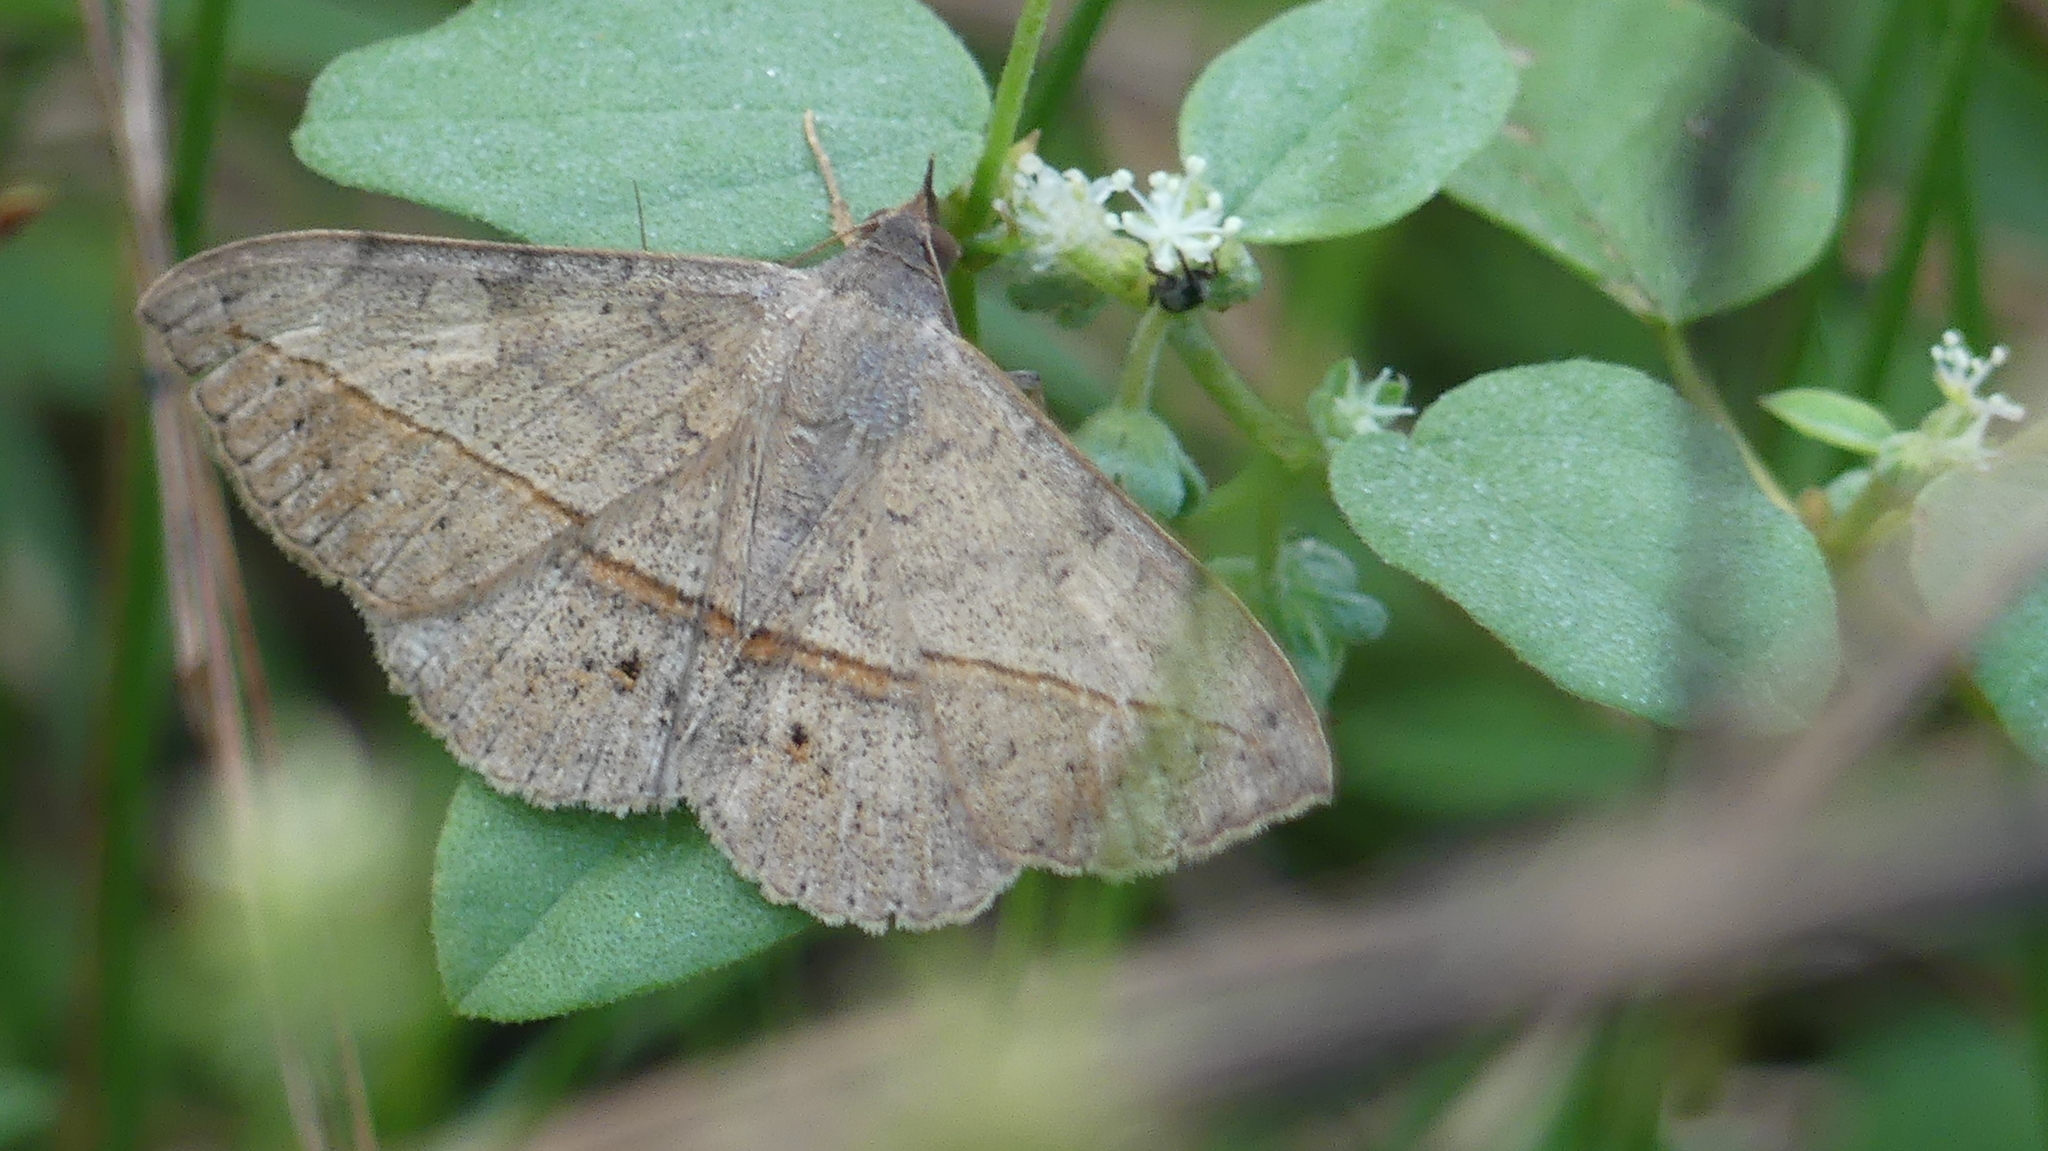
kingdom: Animalia
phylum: Arthropoda
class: Insecta
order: Lepidoptera
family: Erebidae
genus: Anticarsia
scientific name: Anticarsia gemmatalis
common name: Cutworm moth
